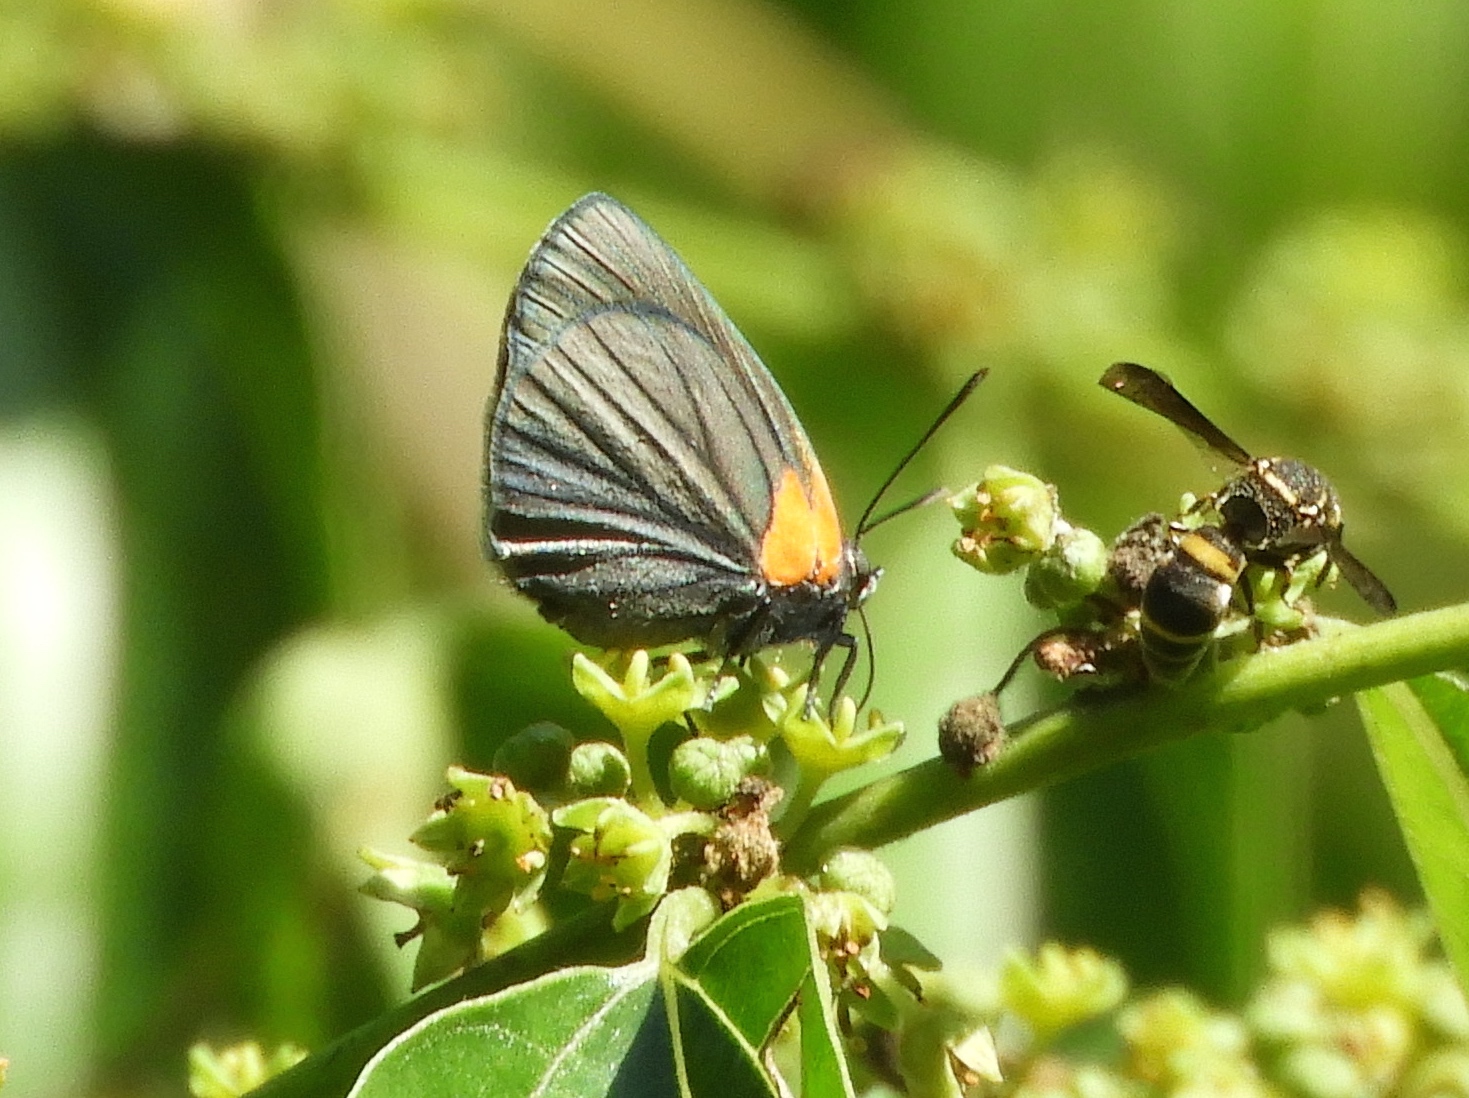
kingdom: Animalia
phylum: Arthropoda
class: Insecta
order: Lepidoptera
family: Lycaenidae
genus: Ipidecla
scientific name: Ipidecla miadora
